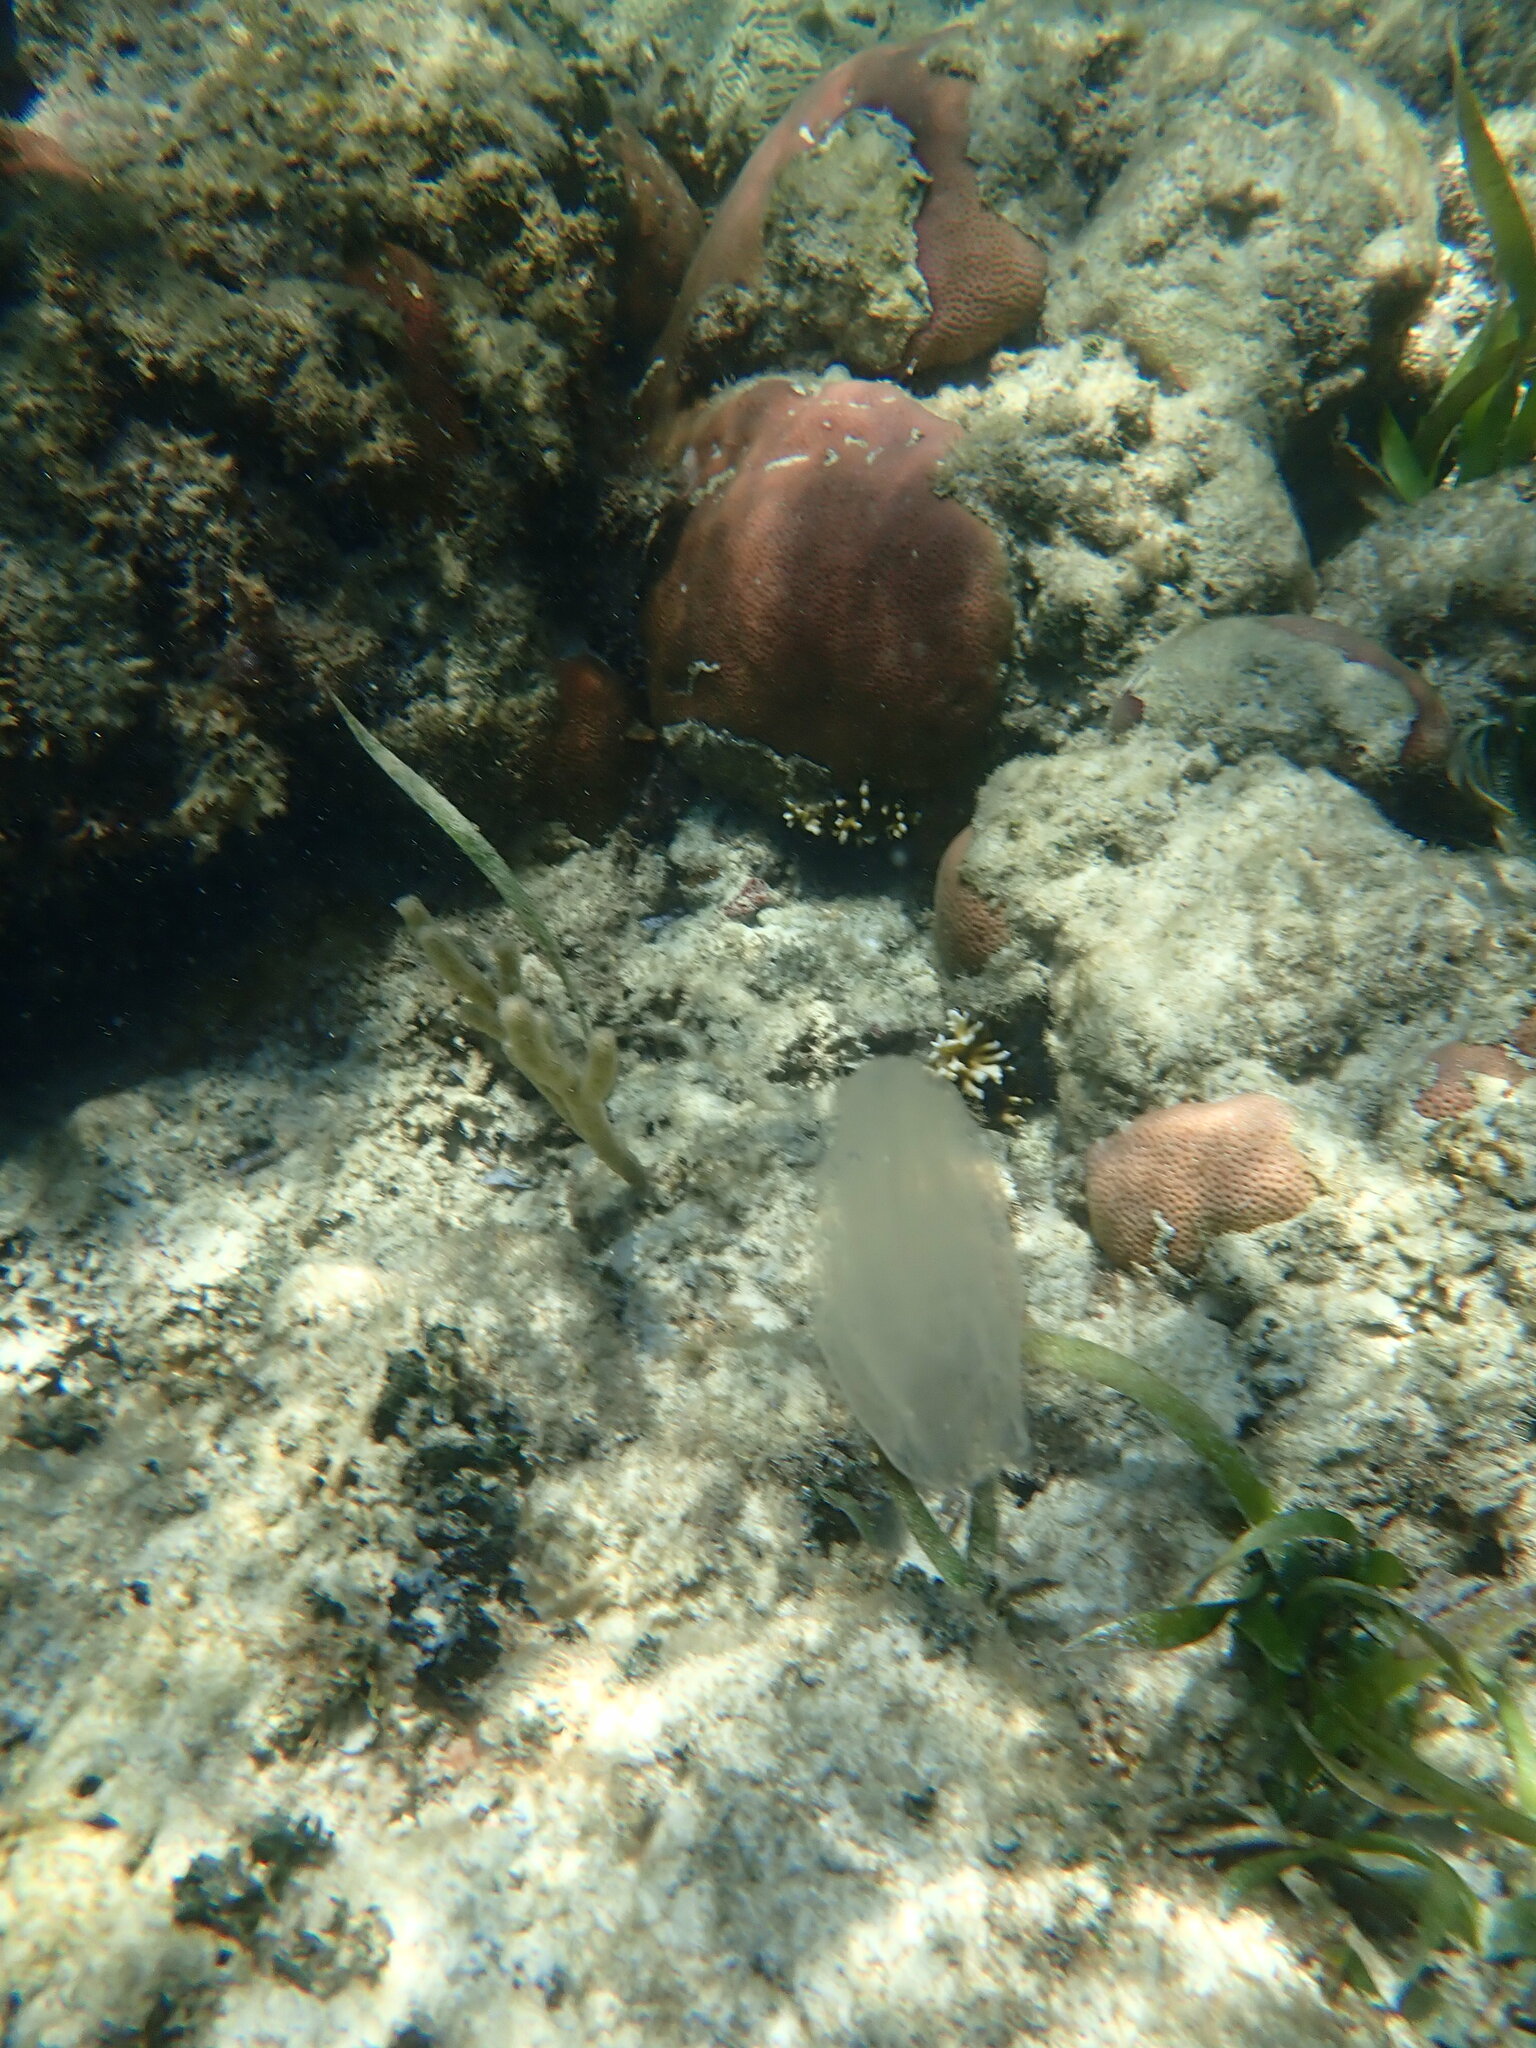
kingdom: Animalia
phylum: Ctenophora
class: Tentaculata
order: Lobata
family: Bolinopsidae
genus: Mnemiopsis
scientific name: Mnemiopsis leidyi
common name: American comb jelly
